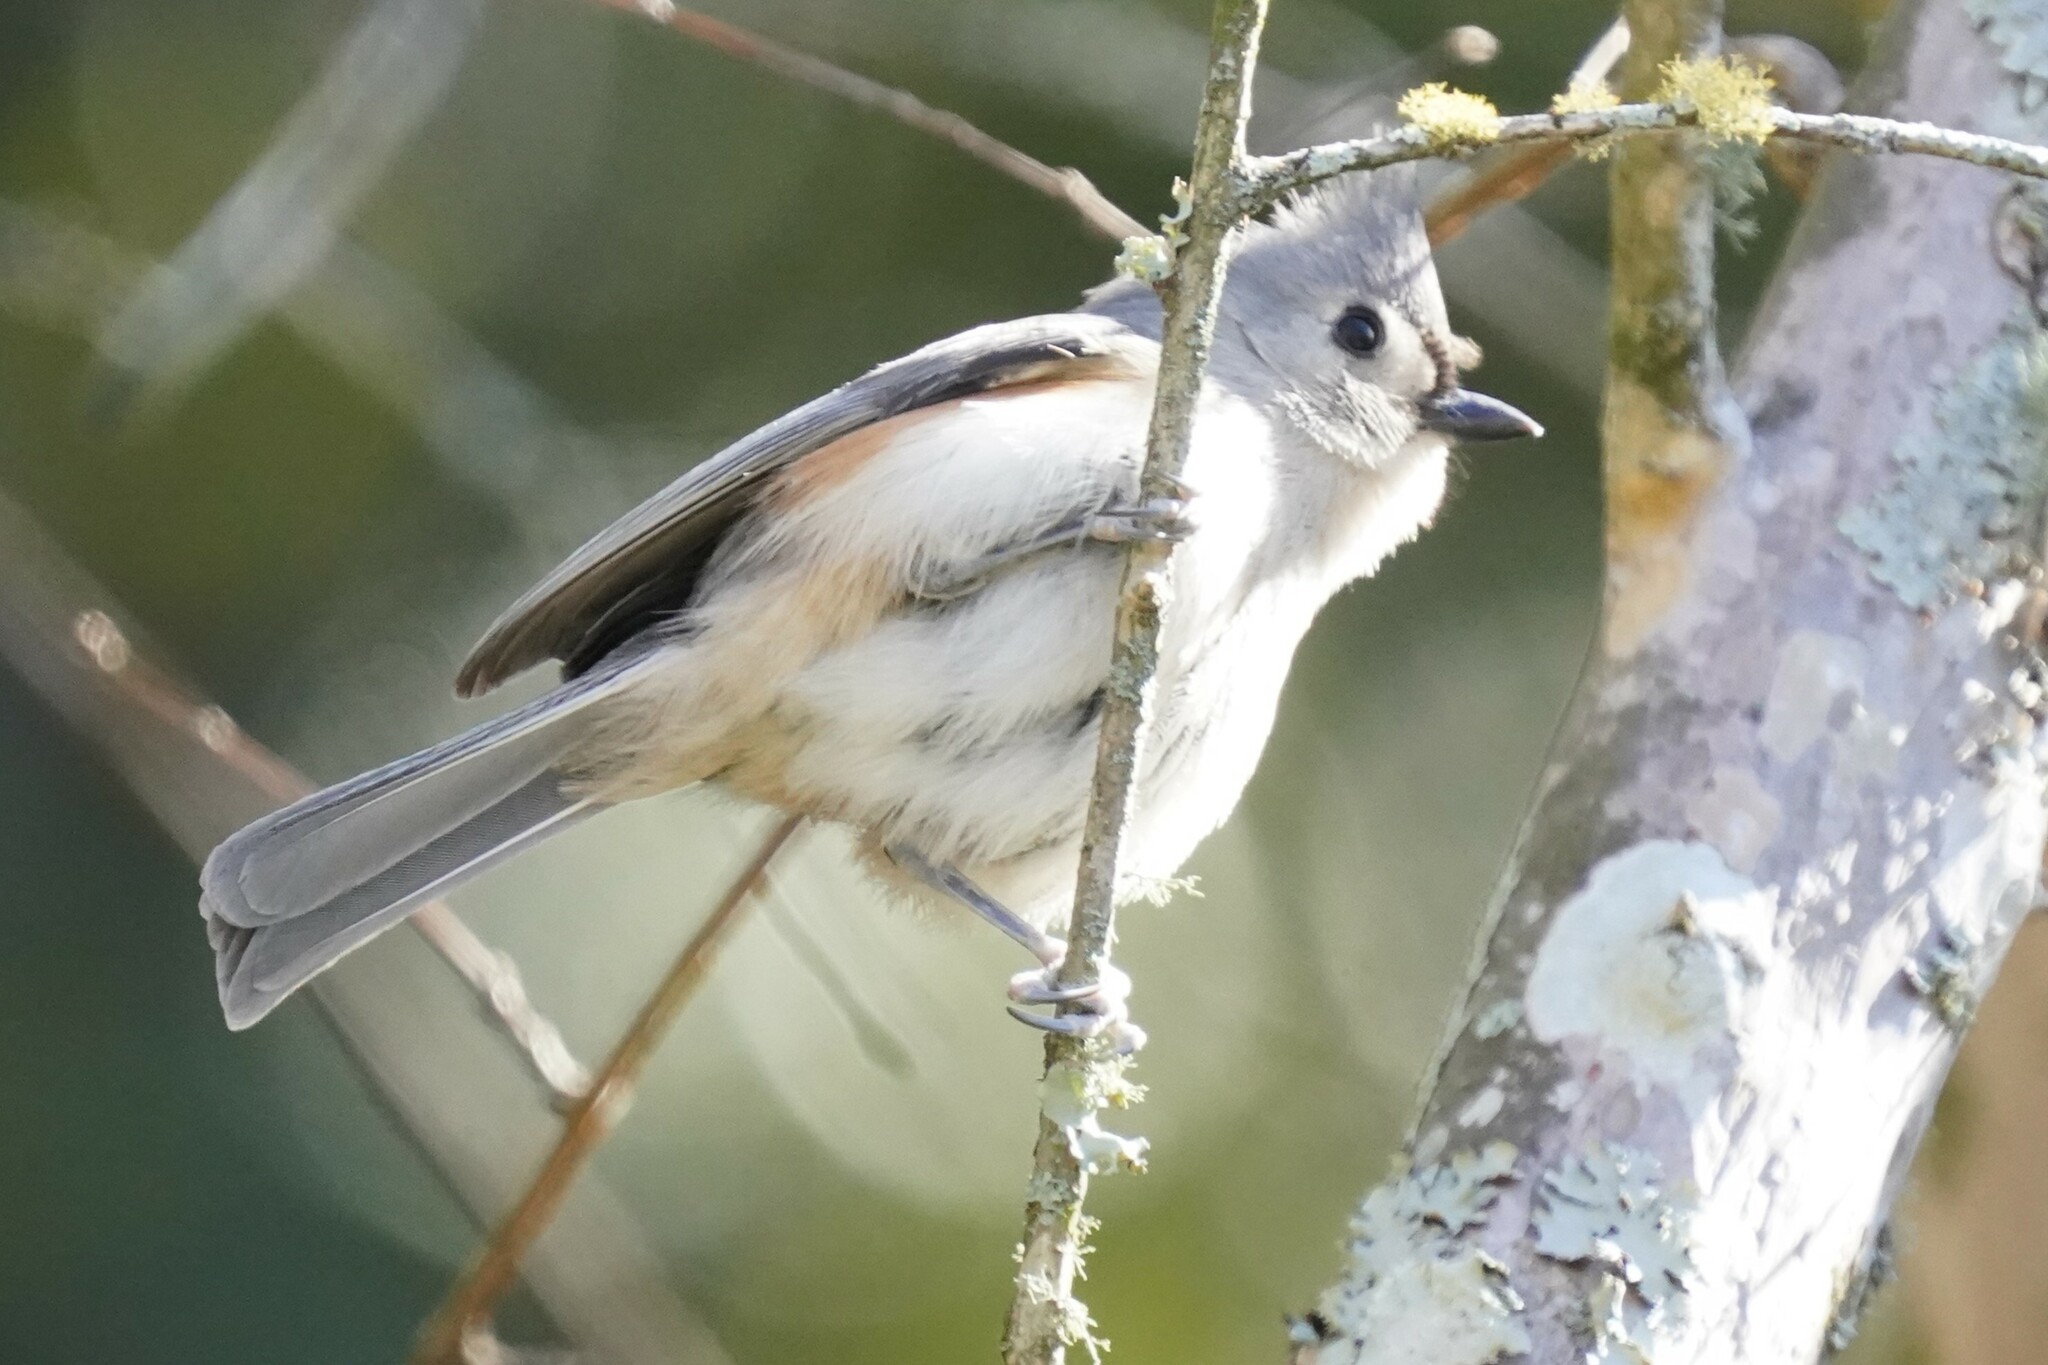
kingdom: Animalia
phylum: Chordata
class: Aves
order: Passeriformes
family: Paridae
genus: Baeolophus
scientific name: Baeolophus bicolor
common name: Tufted titmouse
